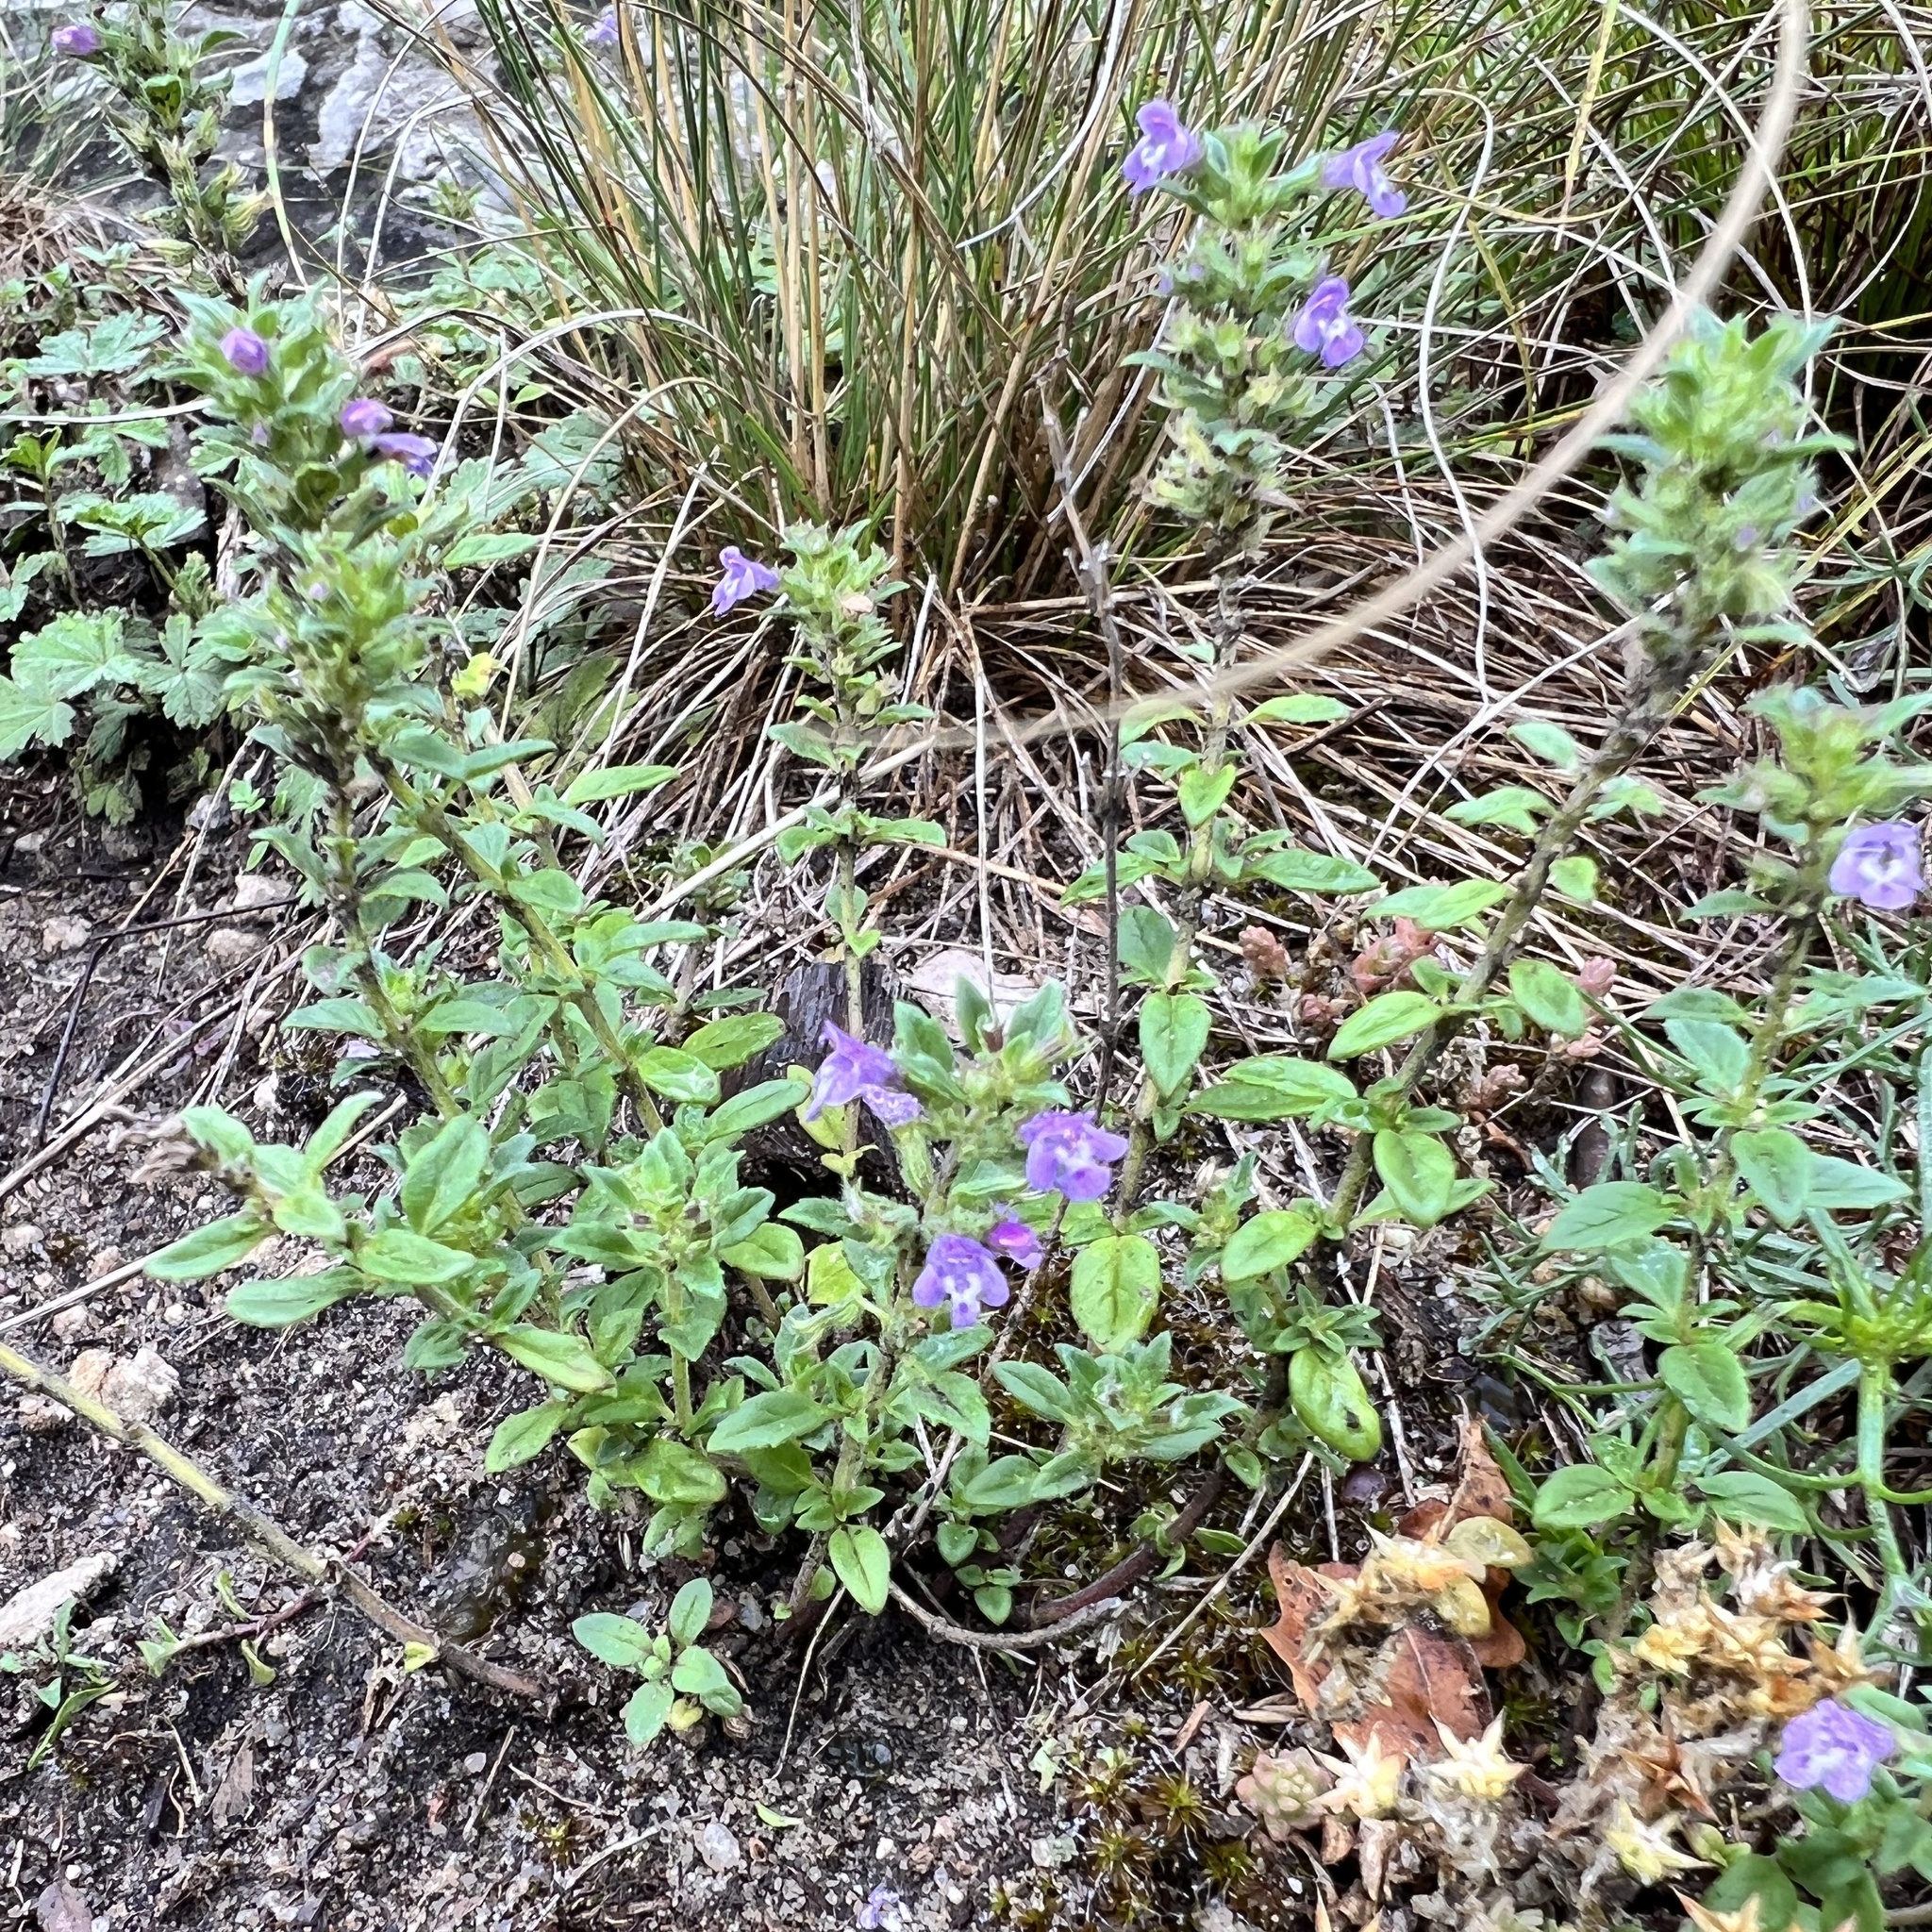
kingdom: Plantae
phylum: Tracheophyta
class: Magnoliopsida
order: Lamiales
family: Lamiaceae
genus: Clinopodium
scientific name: Clinopodium acinos
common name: Basil thyme
